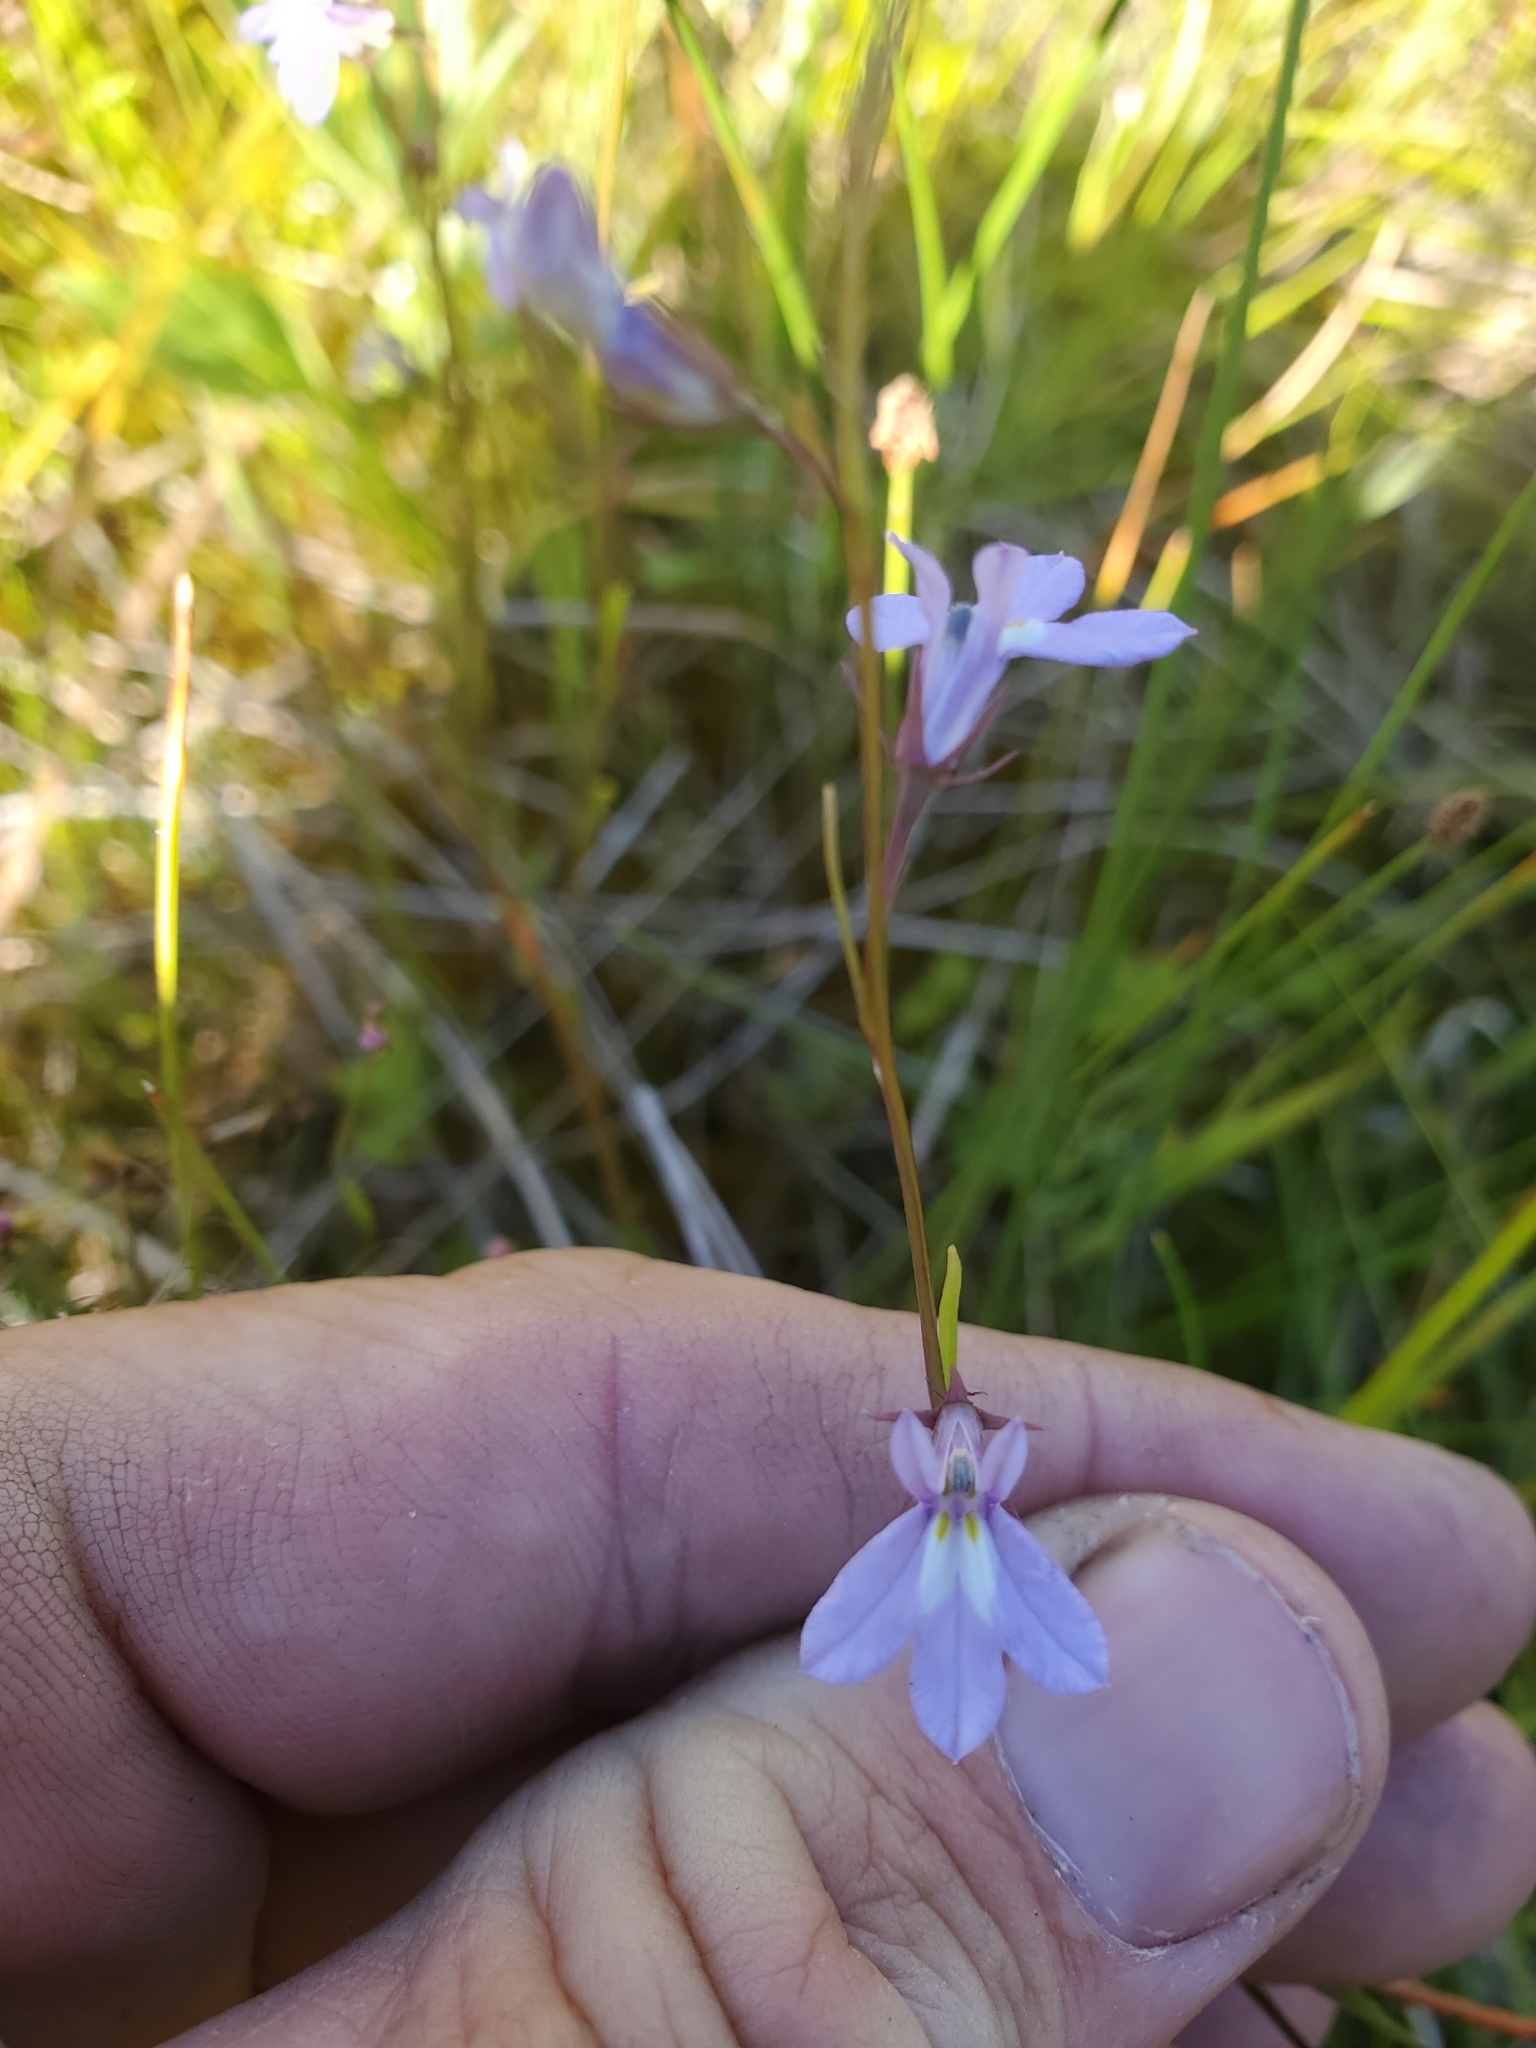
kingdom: Plantae
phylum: Tracheophyta
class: Magnoliopsida
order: Asterales
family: Campanulaceae
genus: Lobelia
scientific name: Lobelia kalmii
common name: Kalm's lobelia
